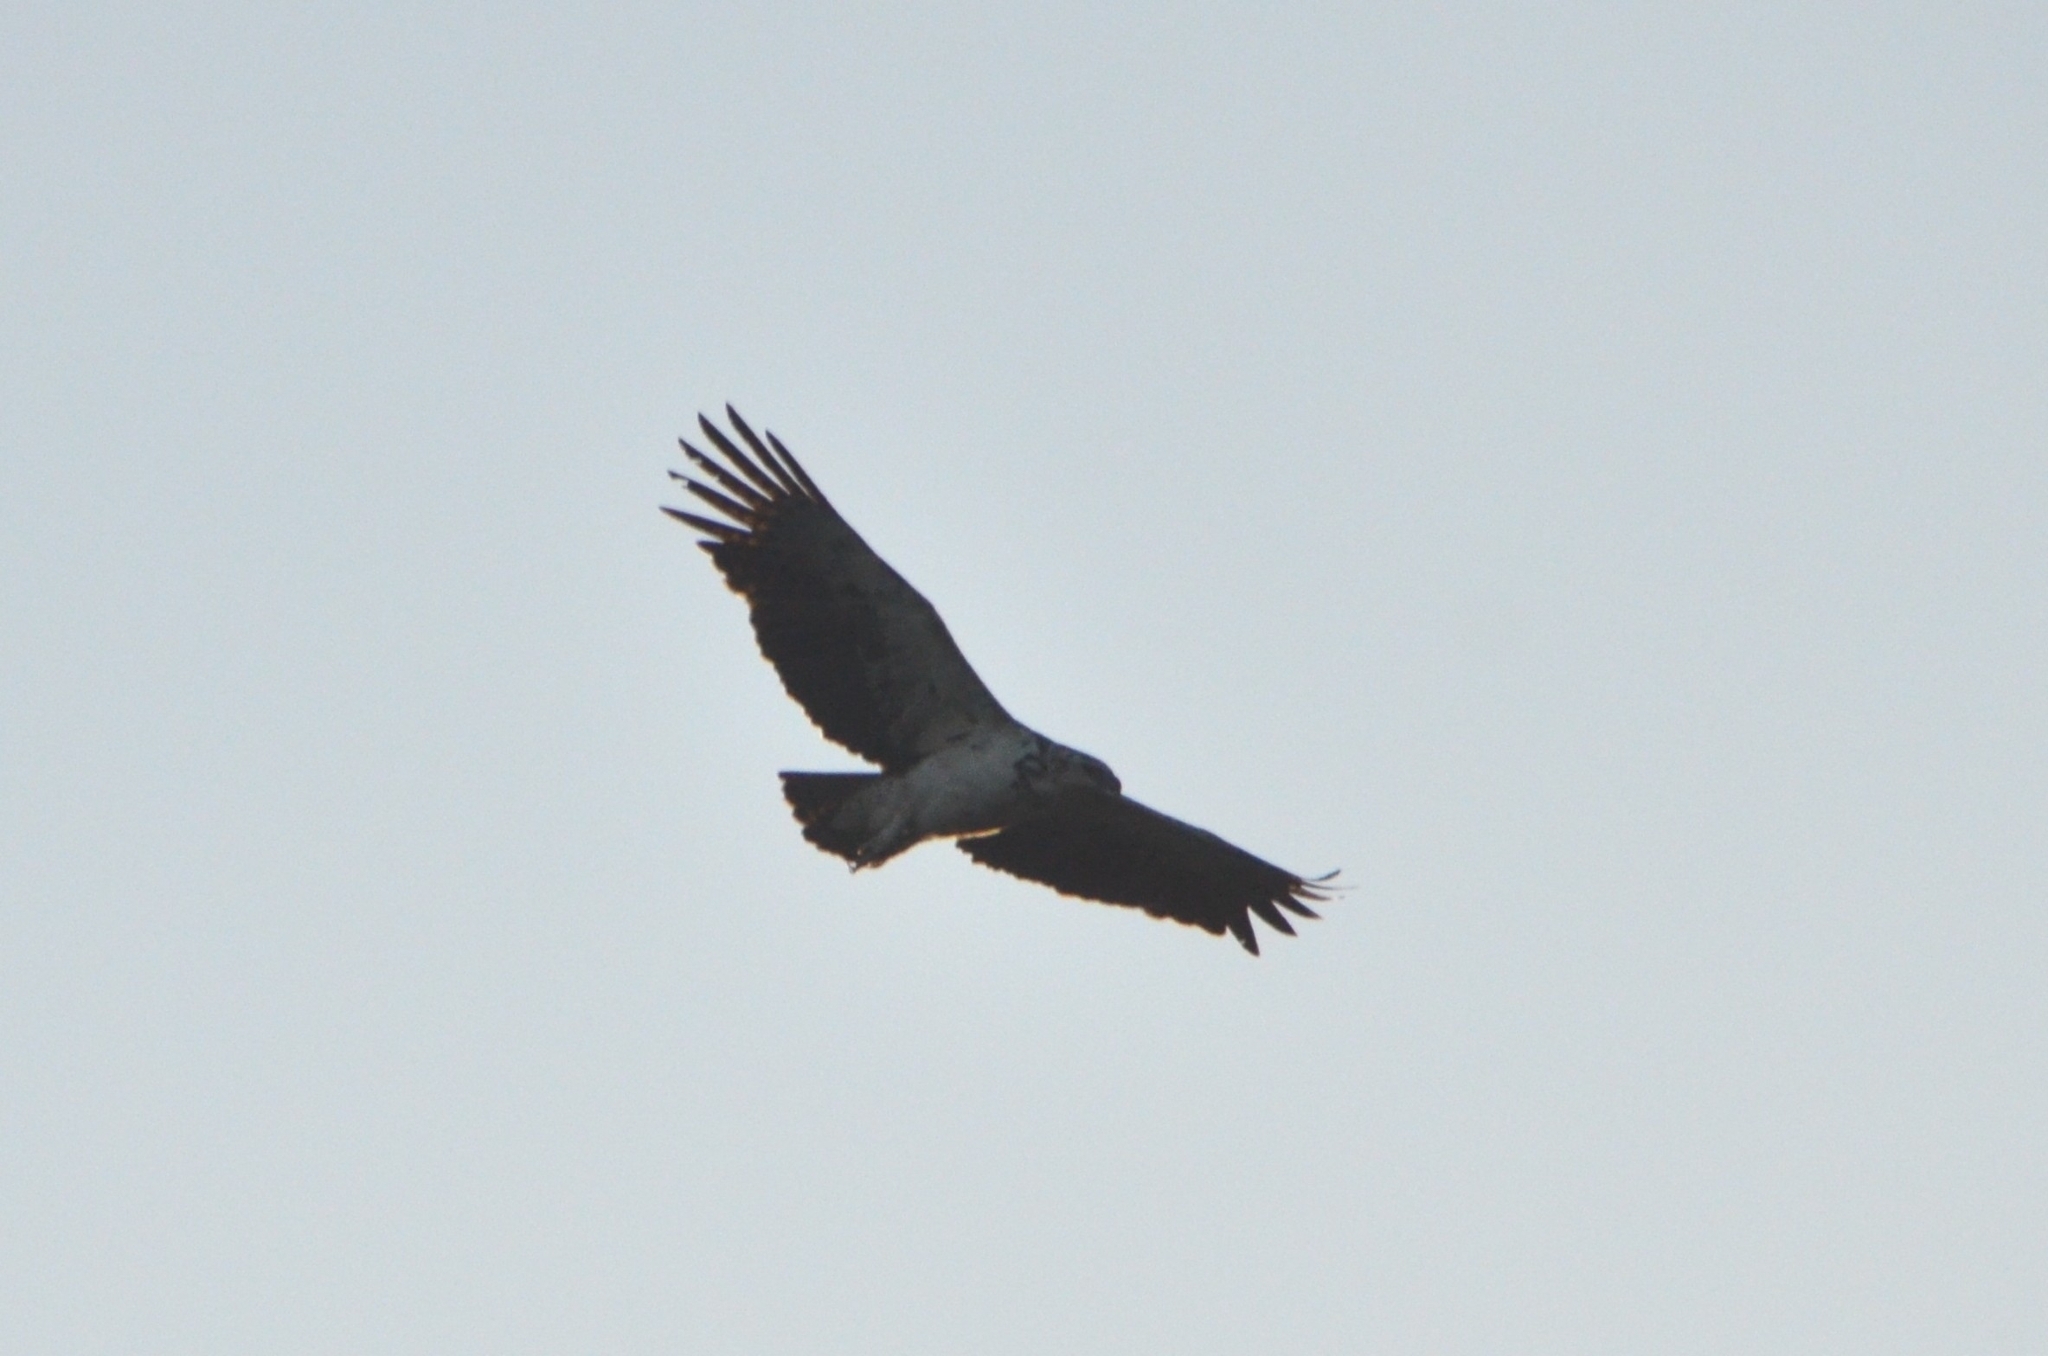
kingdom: Animalia
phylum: Chordata
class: Aves
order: Accipitriformes
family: Accipitridae
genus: Polemaetus
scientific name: Polemaetus bellicosus
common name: Martial eagle
